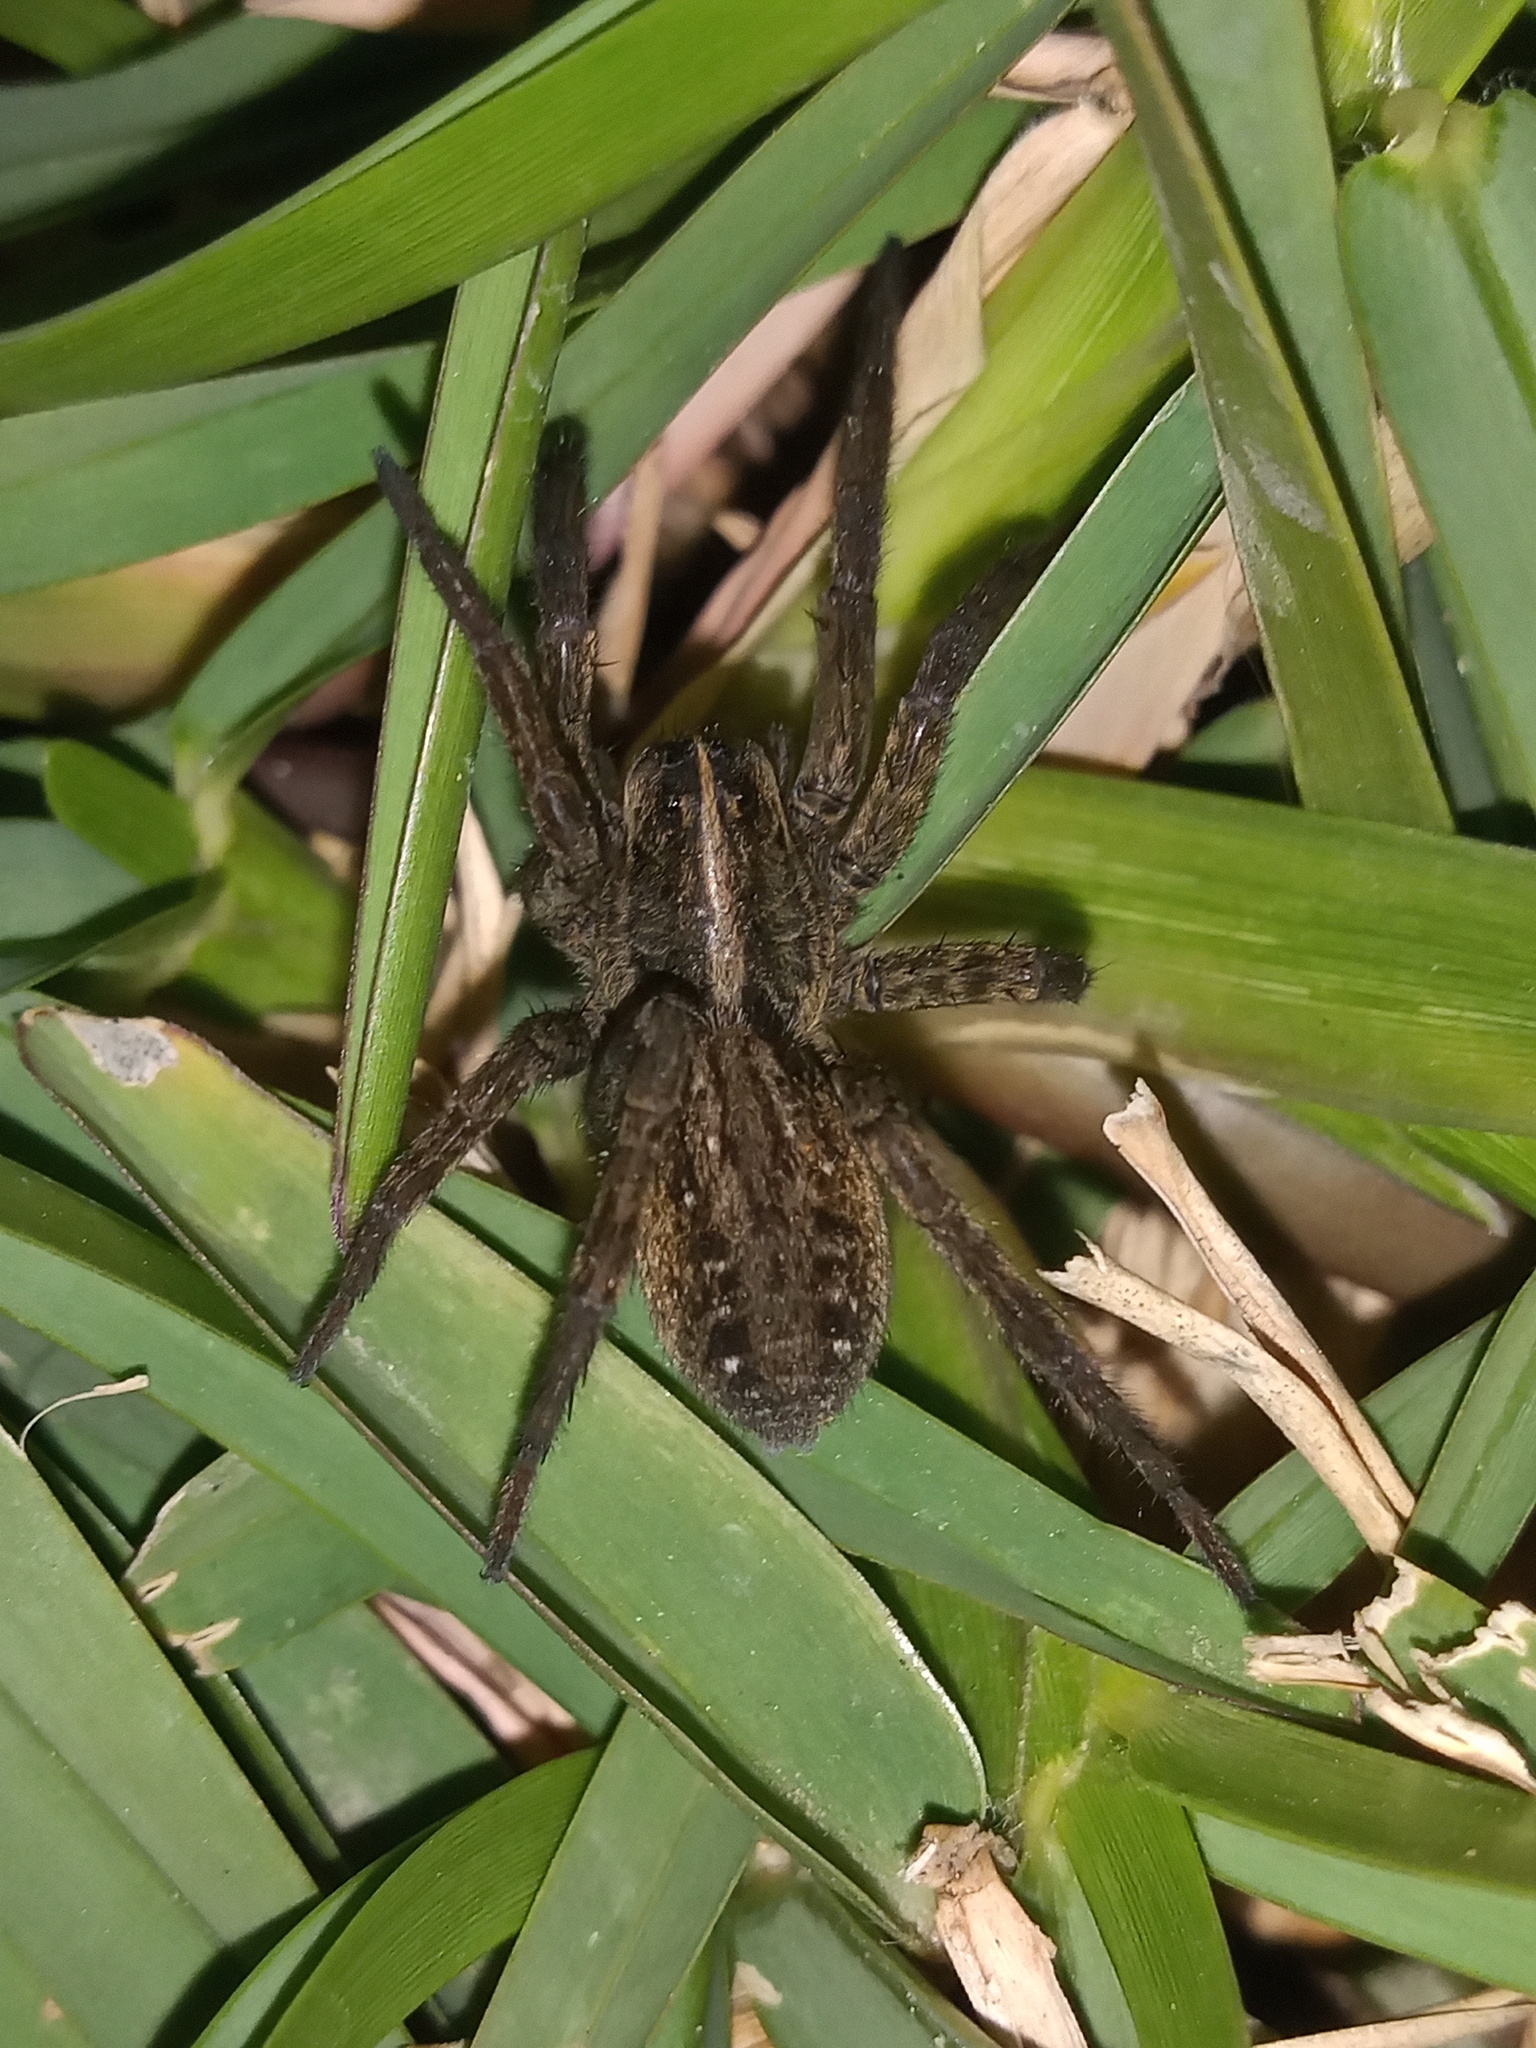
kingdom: Animalia
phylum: Arthropoda
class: Arachnida
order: Araneae
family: Lycosidae
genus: Tigrosa
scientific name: Tigrosa helluo
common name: Wetland giant wolf spider
